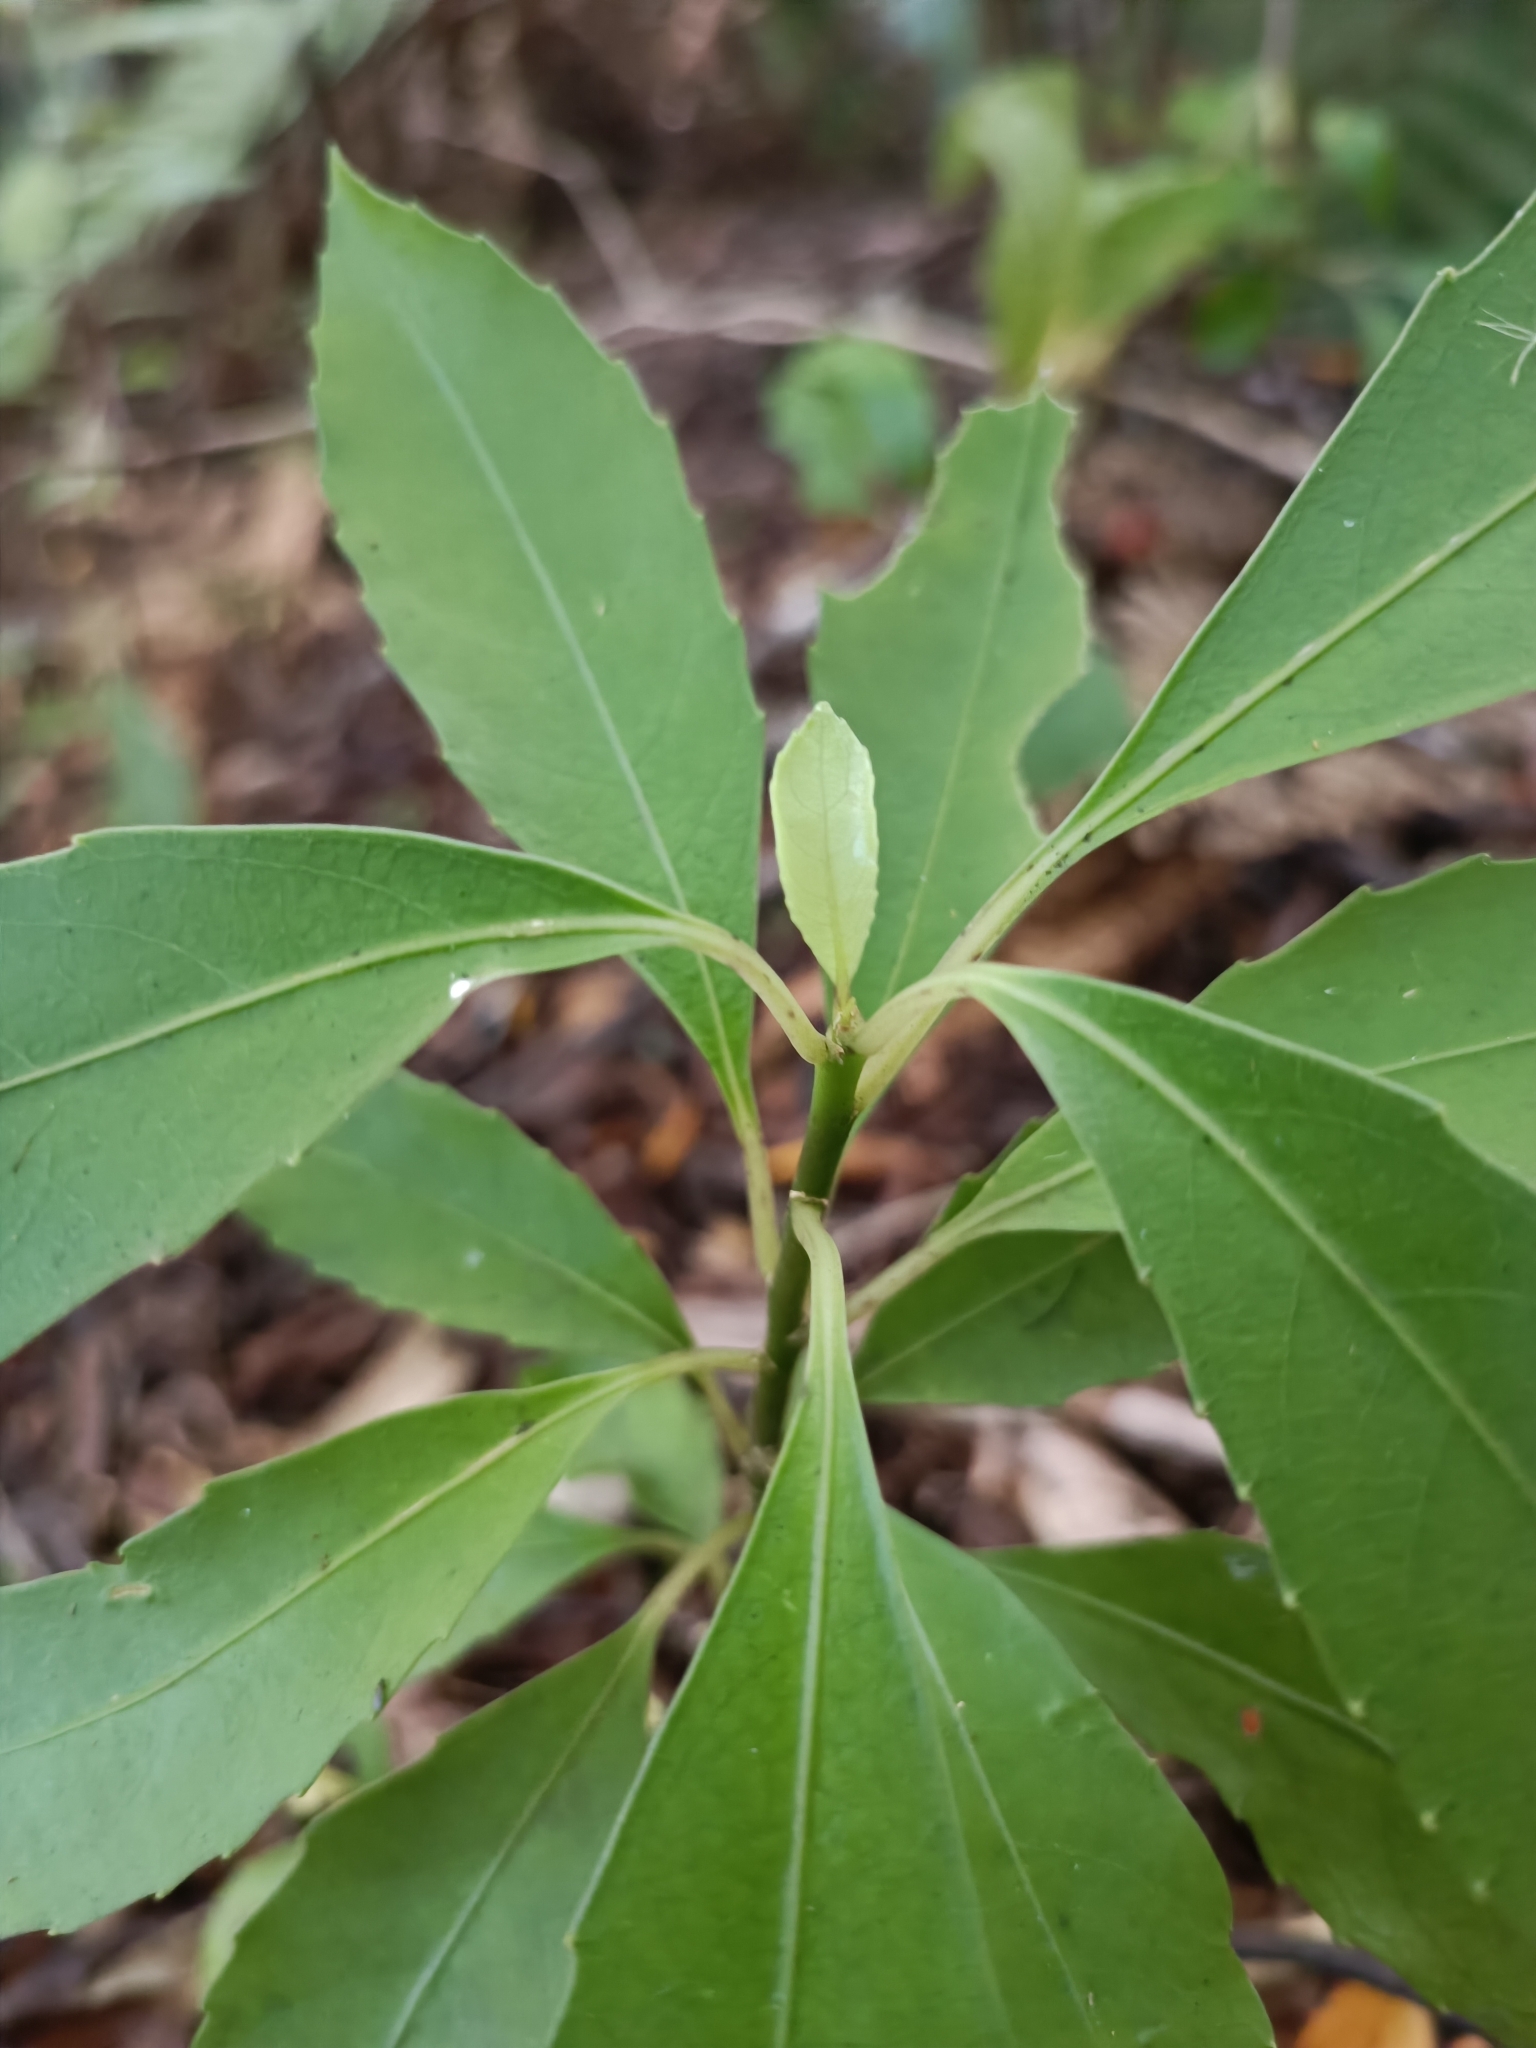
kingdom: Plantae
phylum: Tracheophyta
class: Magnoliopsida
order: Malpighiales
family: Violaceae
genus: Melicytus
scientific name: Melicytus macrophyllus
